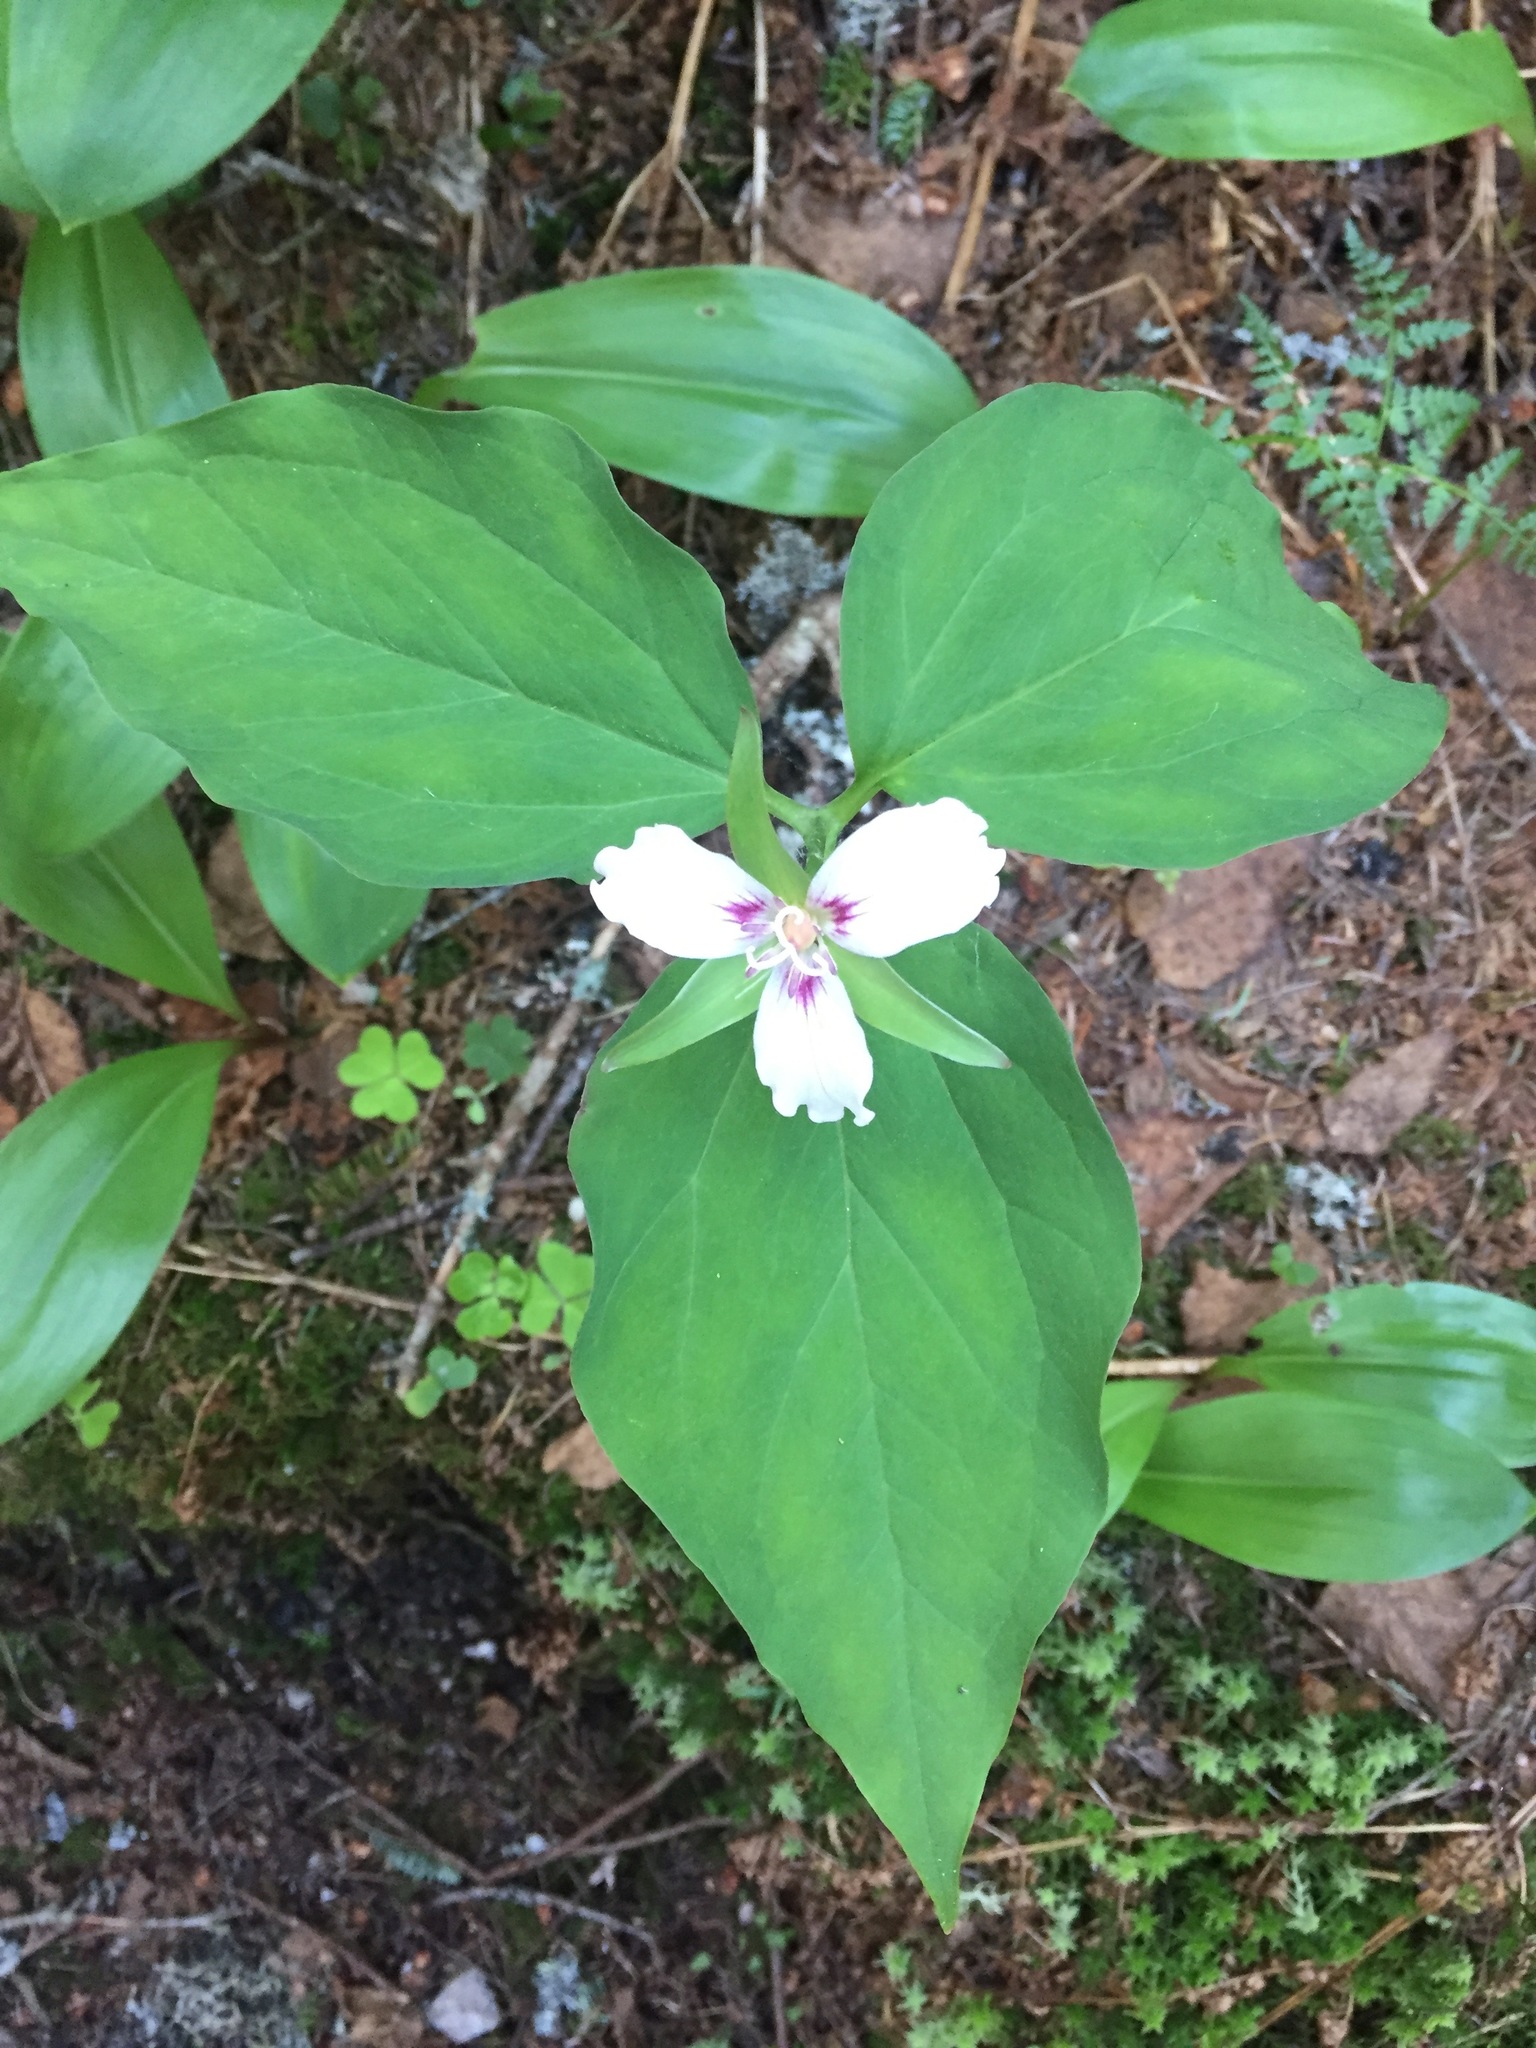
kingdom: Plantae
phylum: Tracheophyta
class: Liliopsida
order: Liliales
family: Melanthiaceae
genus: Trillium
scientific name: Trillium undulatum
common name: Paint trillium
